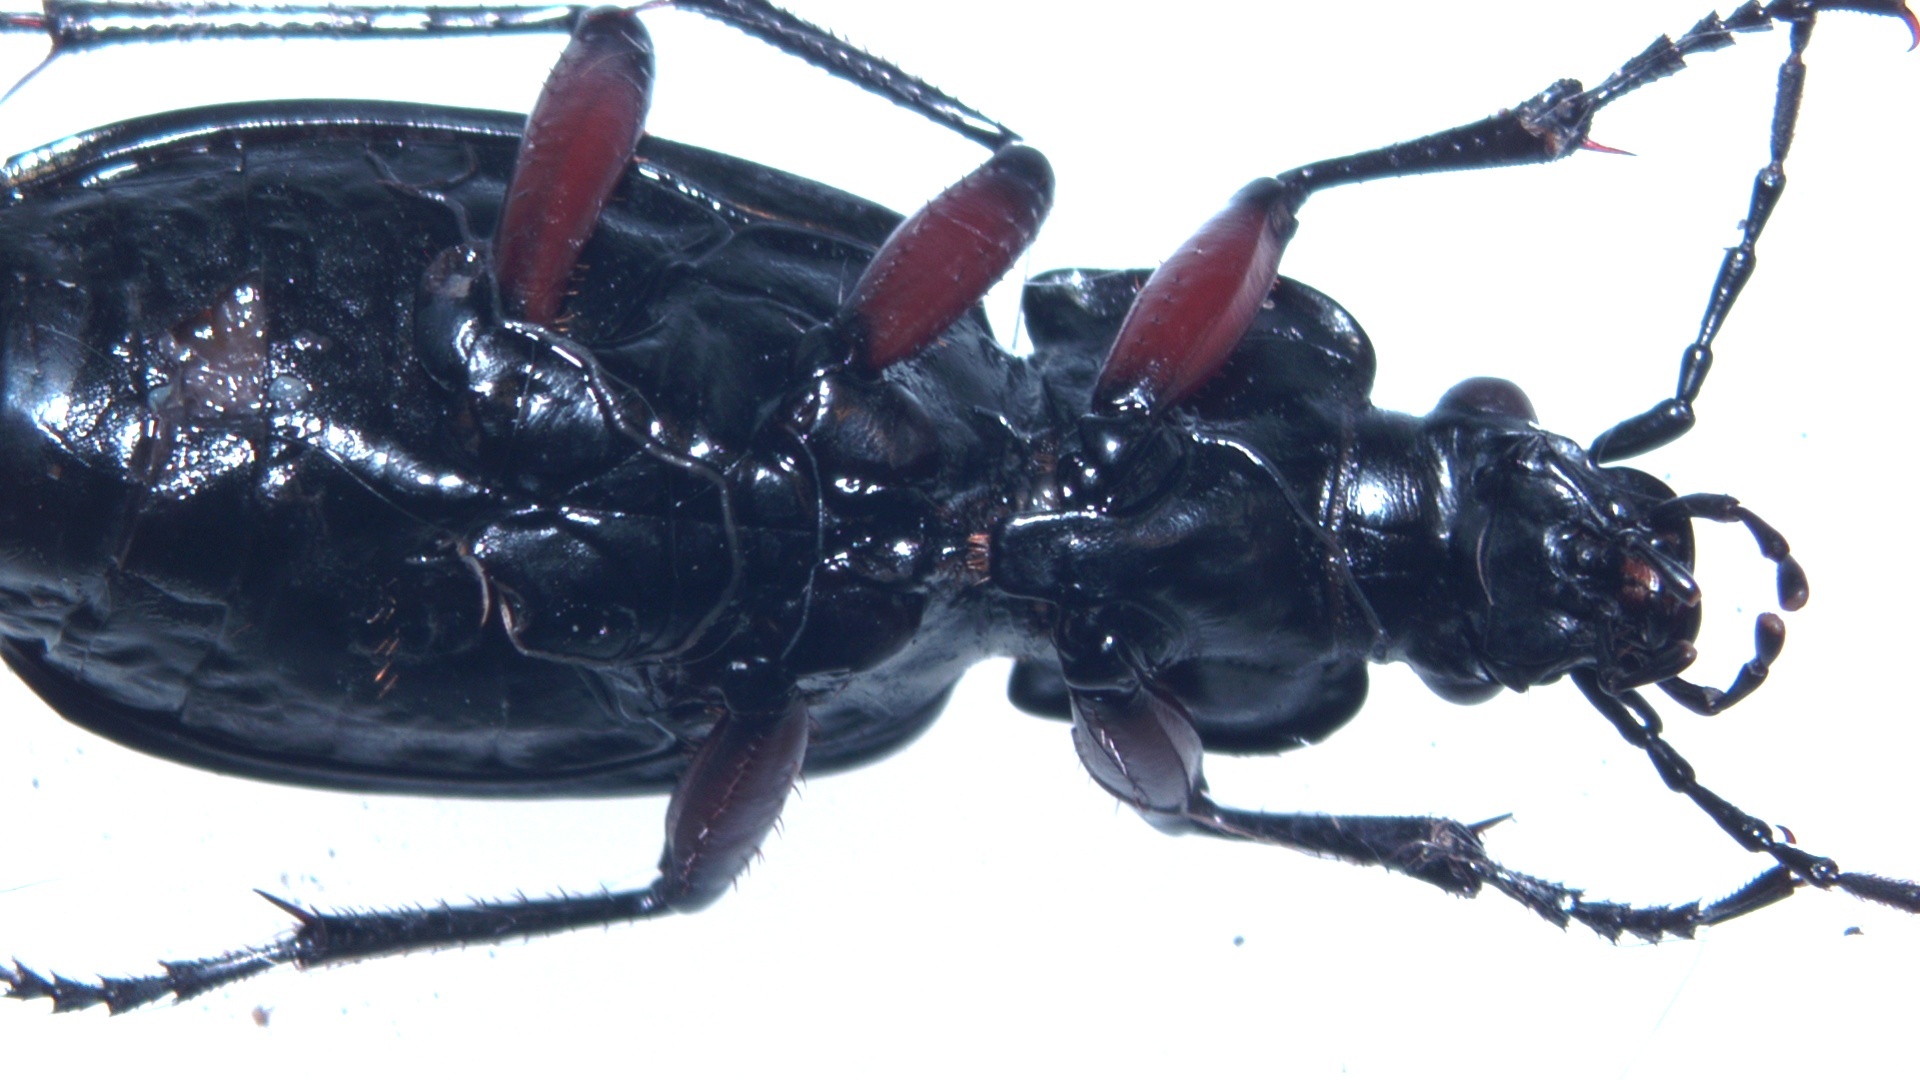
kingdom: Animalia
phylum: Arthropoda
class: Insecta
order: Coleoptera
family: Carabidae
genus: Carabus
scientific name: Carabus granulatus
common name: Granulate ground beetle
